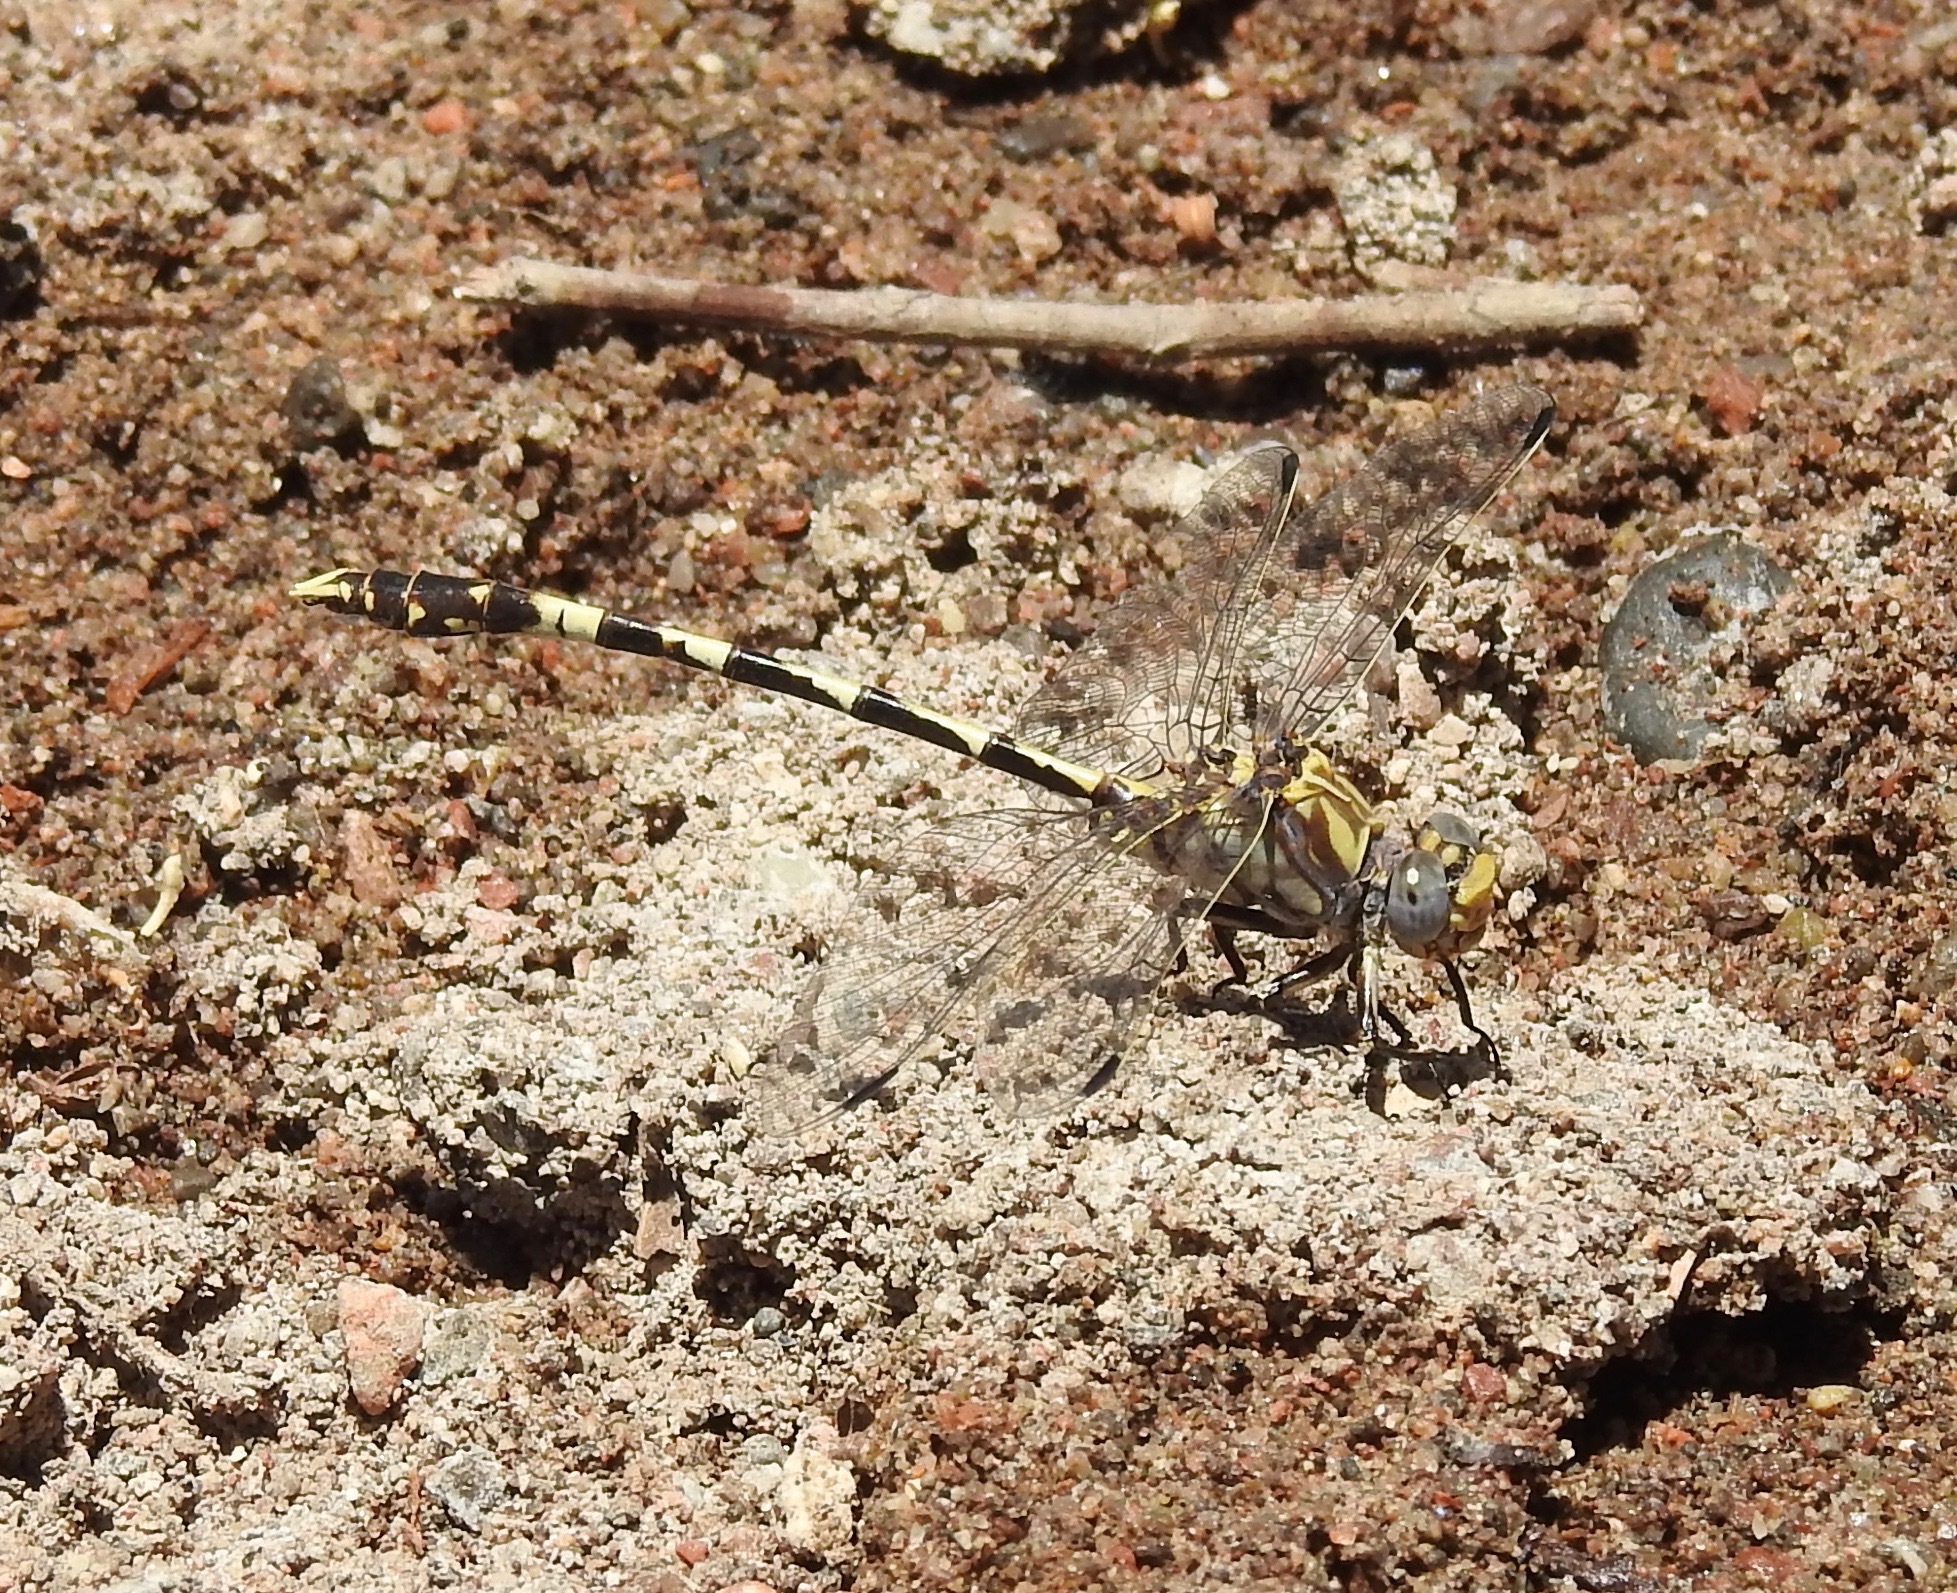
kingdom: Animalia
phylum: Arthropoda
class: Insecta
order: Odonata
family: Gomphidae
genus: Progomphus
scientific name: Progomphus borealis
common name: Gray sanddragon
